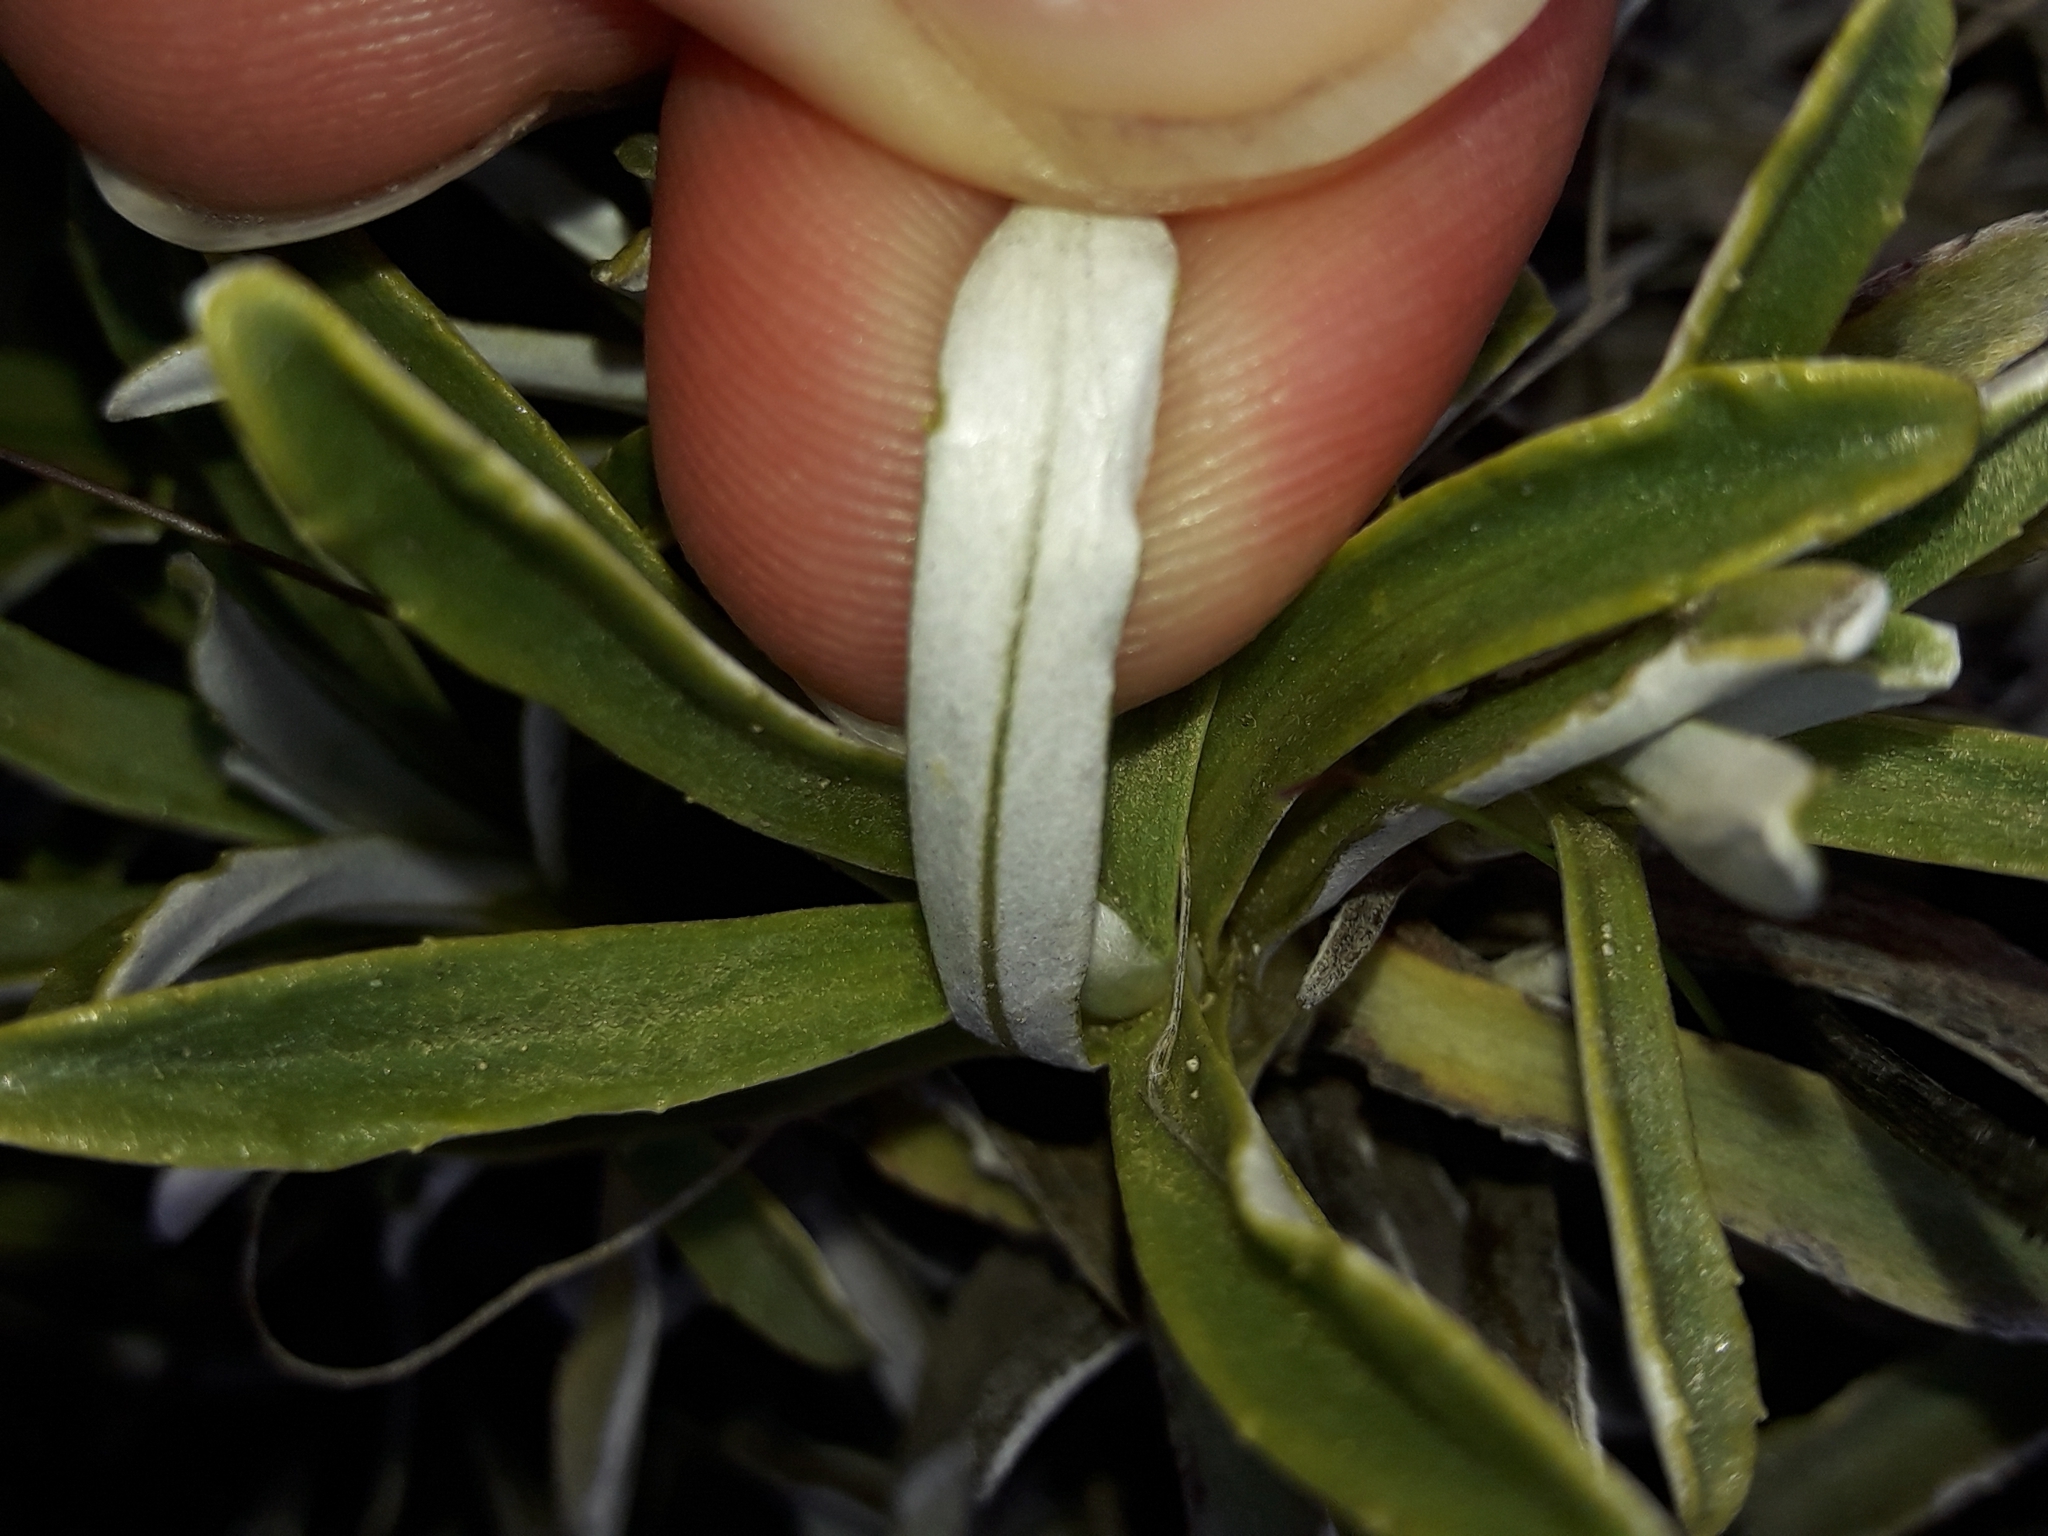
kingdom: Plantae
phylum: Tracheophyta
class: Magnoliopsida
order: Asterales
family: Asteraceae
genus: Celmisia
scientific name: Celmisia angustifolia
